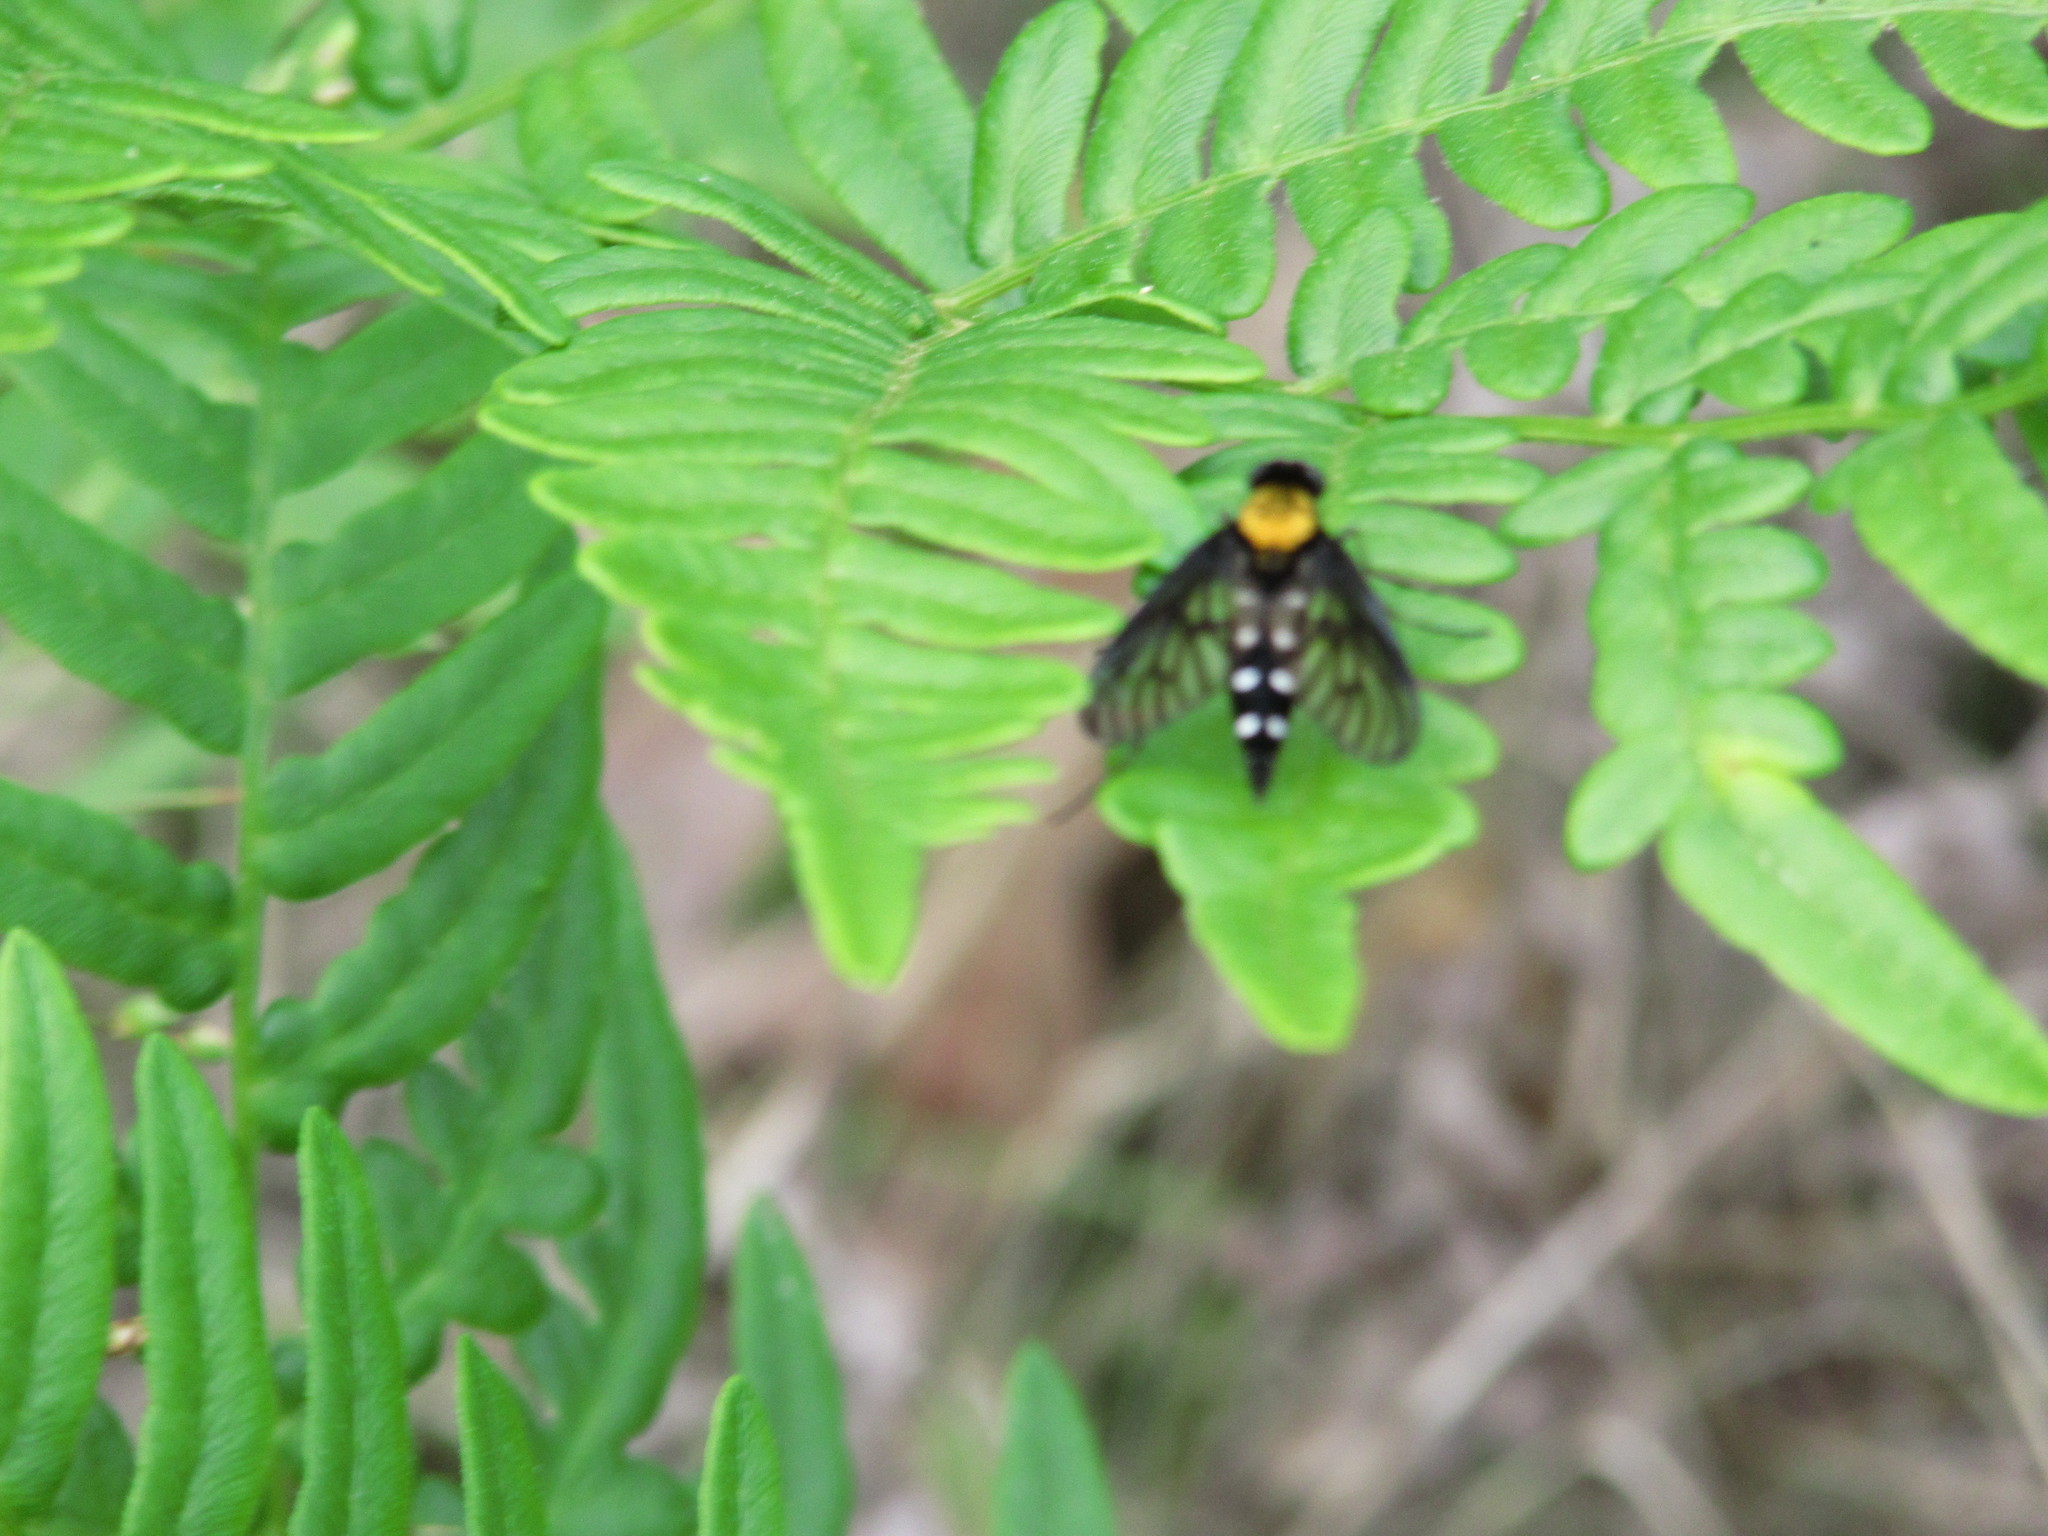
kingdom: Animalia
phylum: Arthropoda
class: Insecta
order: Diptera
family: Rhagionidae
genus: Chrysopilus
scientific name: Chrysopilus thoracicus
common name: Golden-backed snipe fly
